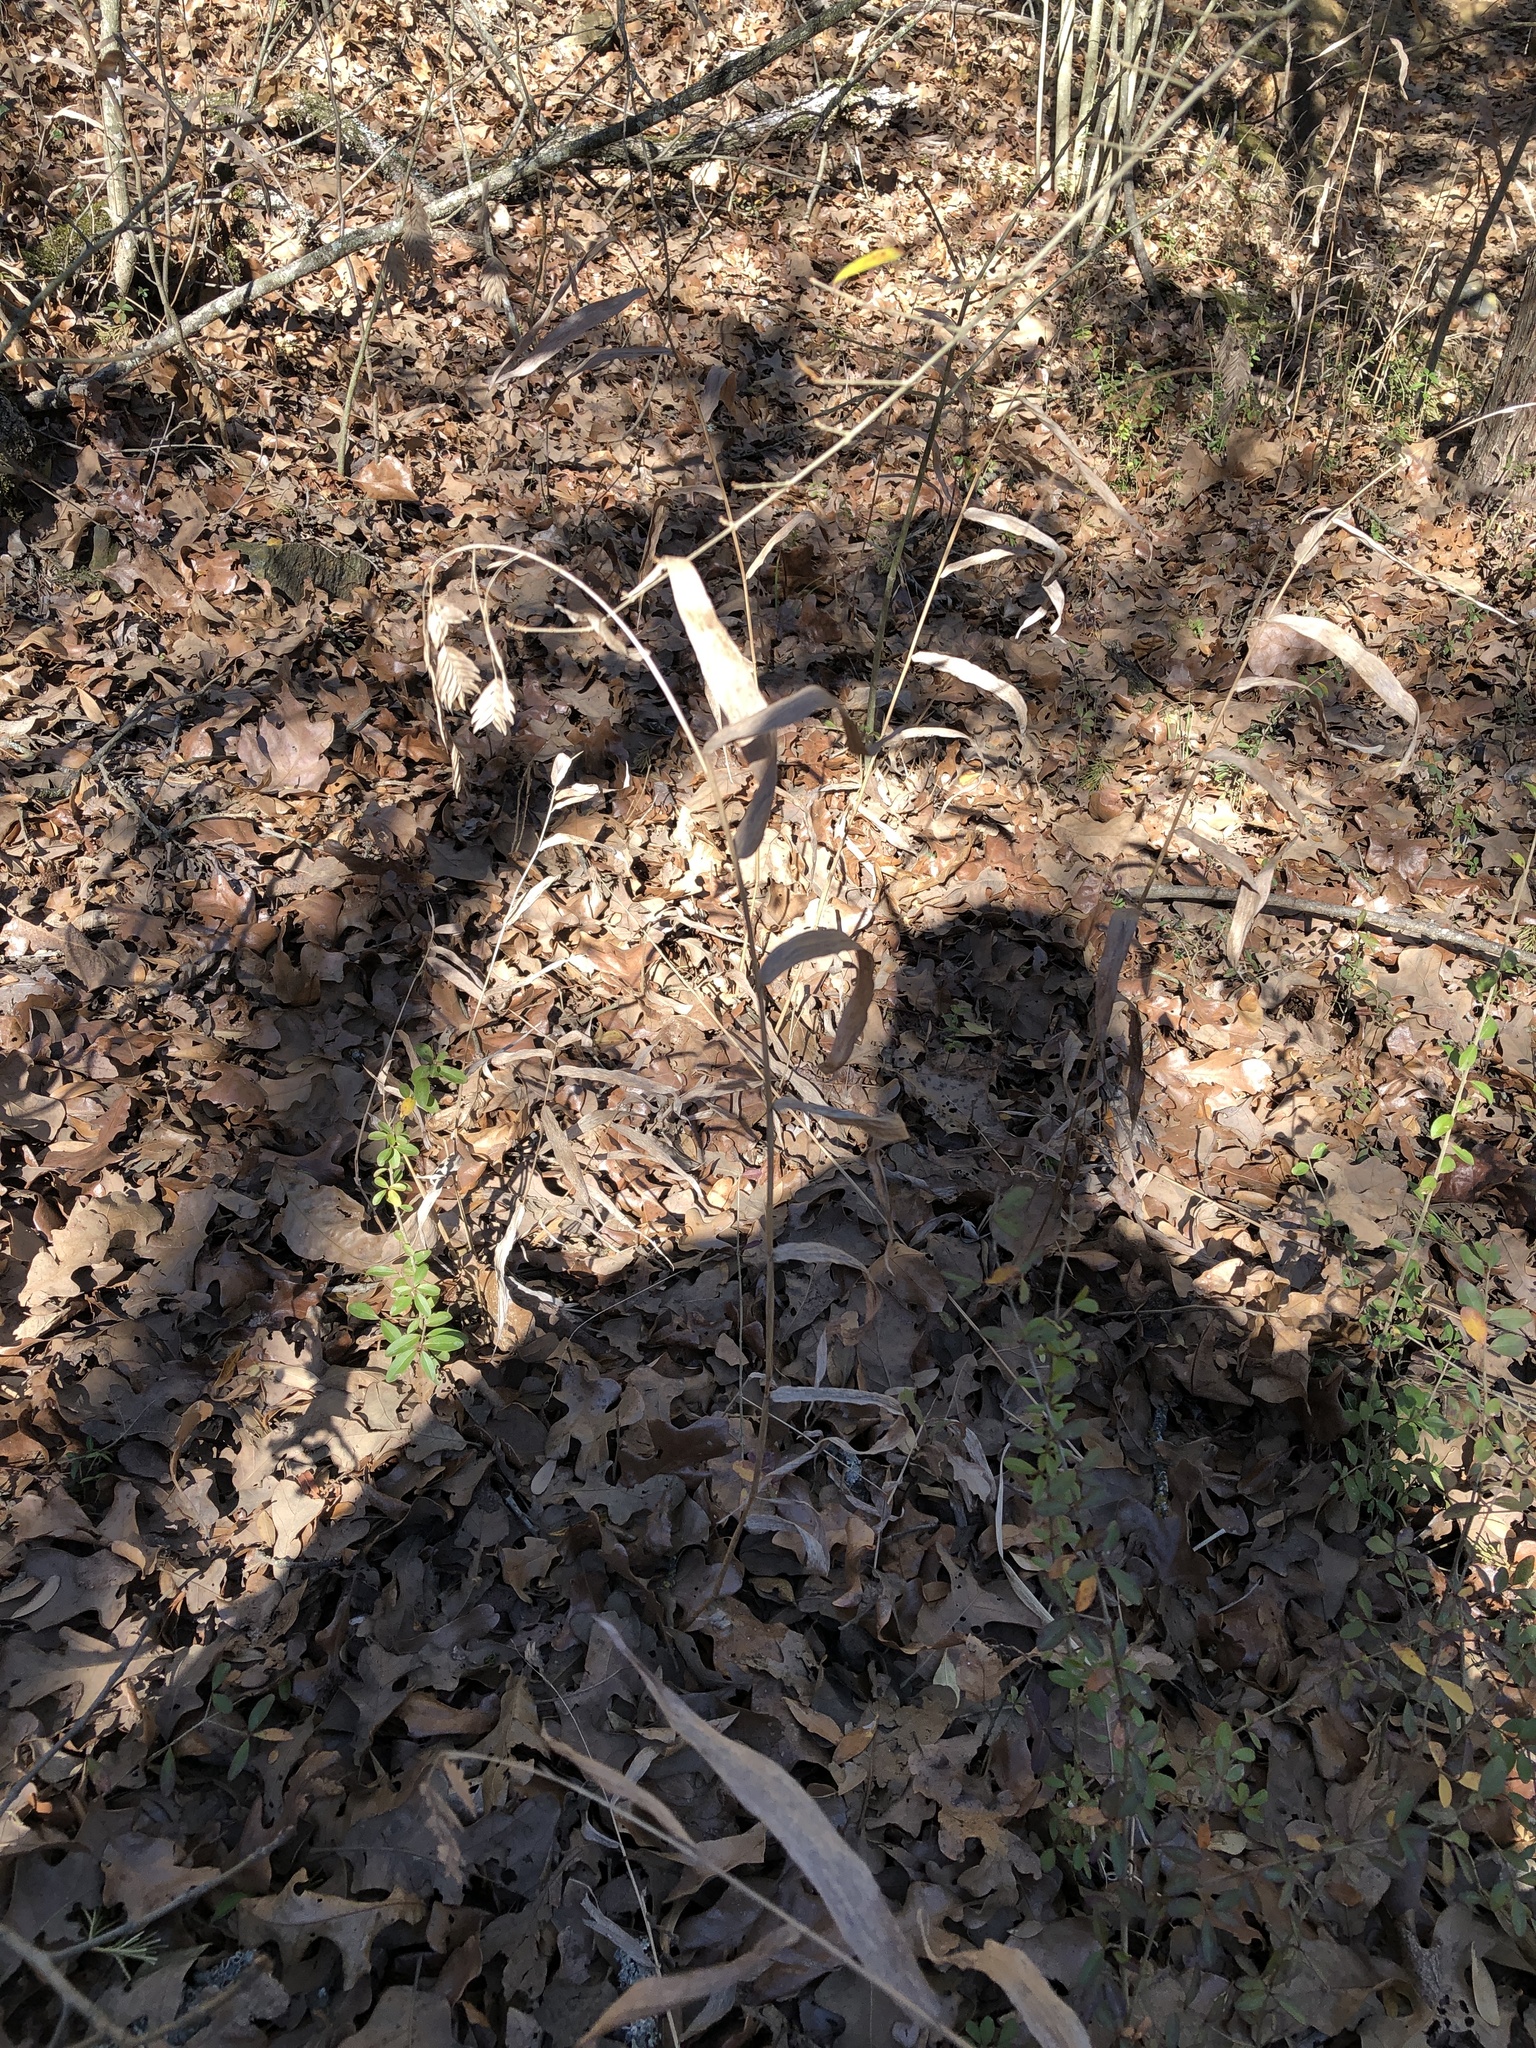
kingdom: Plantae
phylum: Tracheophyta
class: Liliopsida
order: Poales
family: Poaceae
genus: Chasmanthium
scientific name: Chasmanthium latifolium
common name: Broad-leaved chasmanthium
